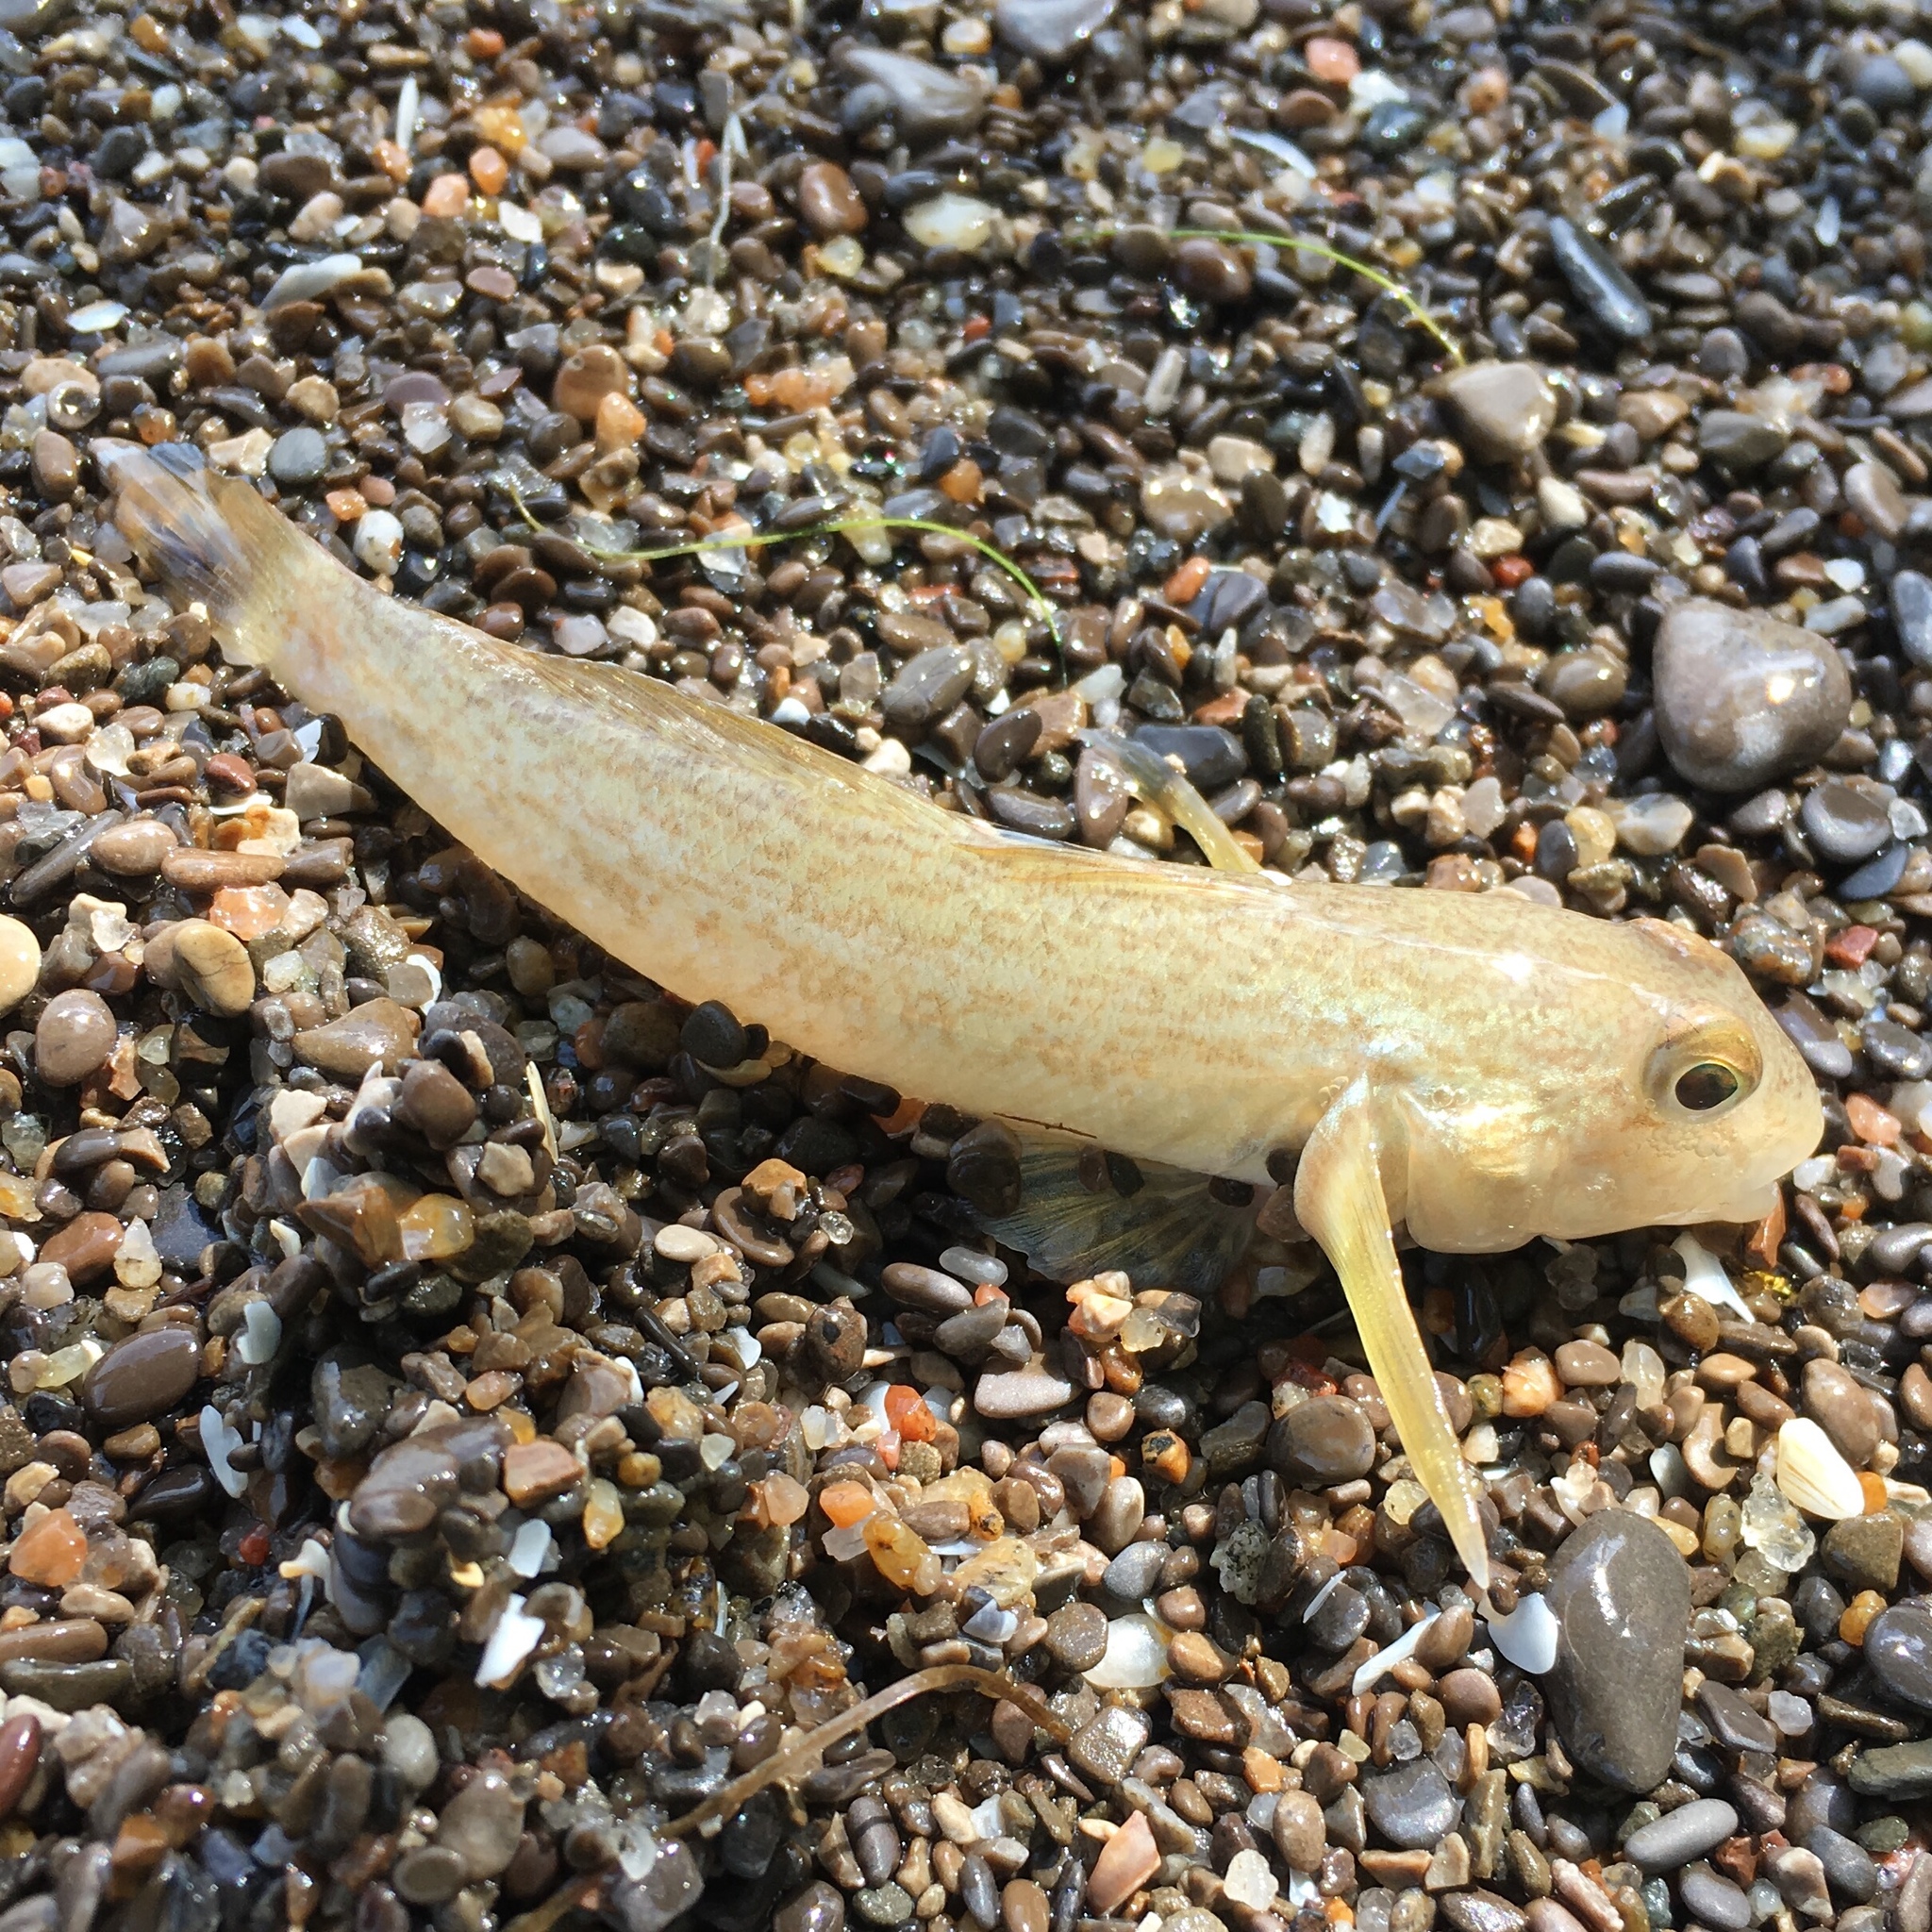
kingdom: Animalia
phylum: Chordata
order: Perciformes
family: Gobiidae
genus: Neogobius
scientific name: Neogobius melanostomus
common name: Round goby
